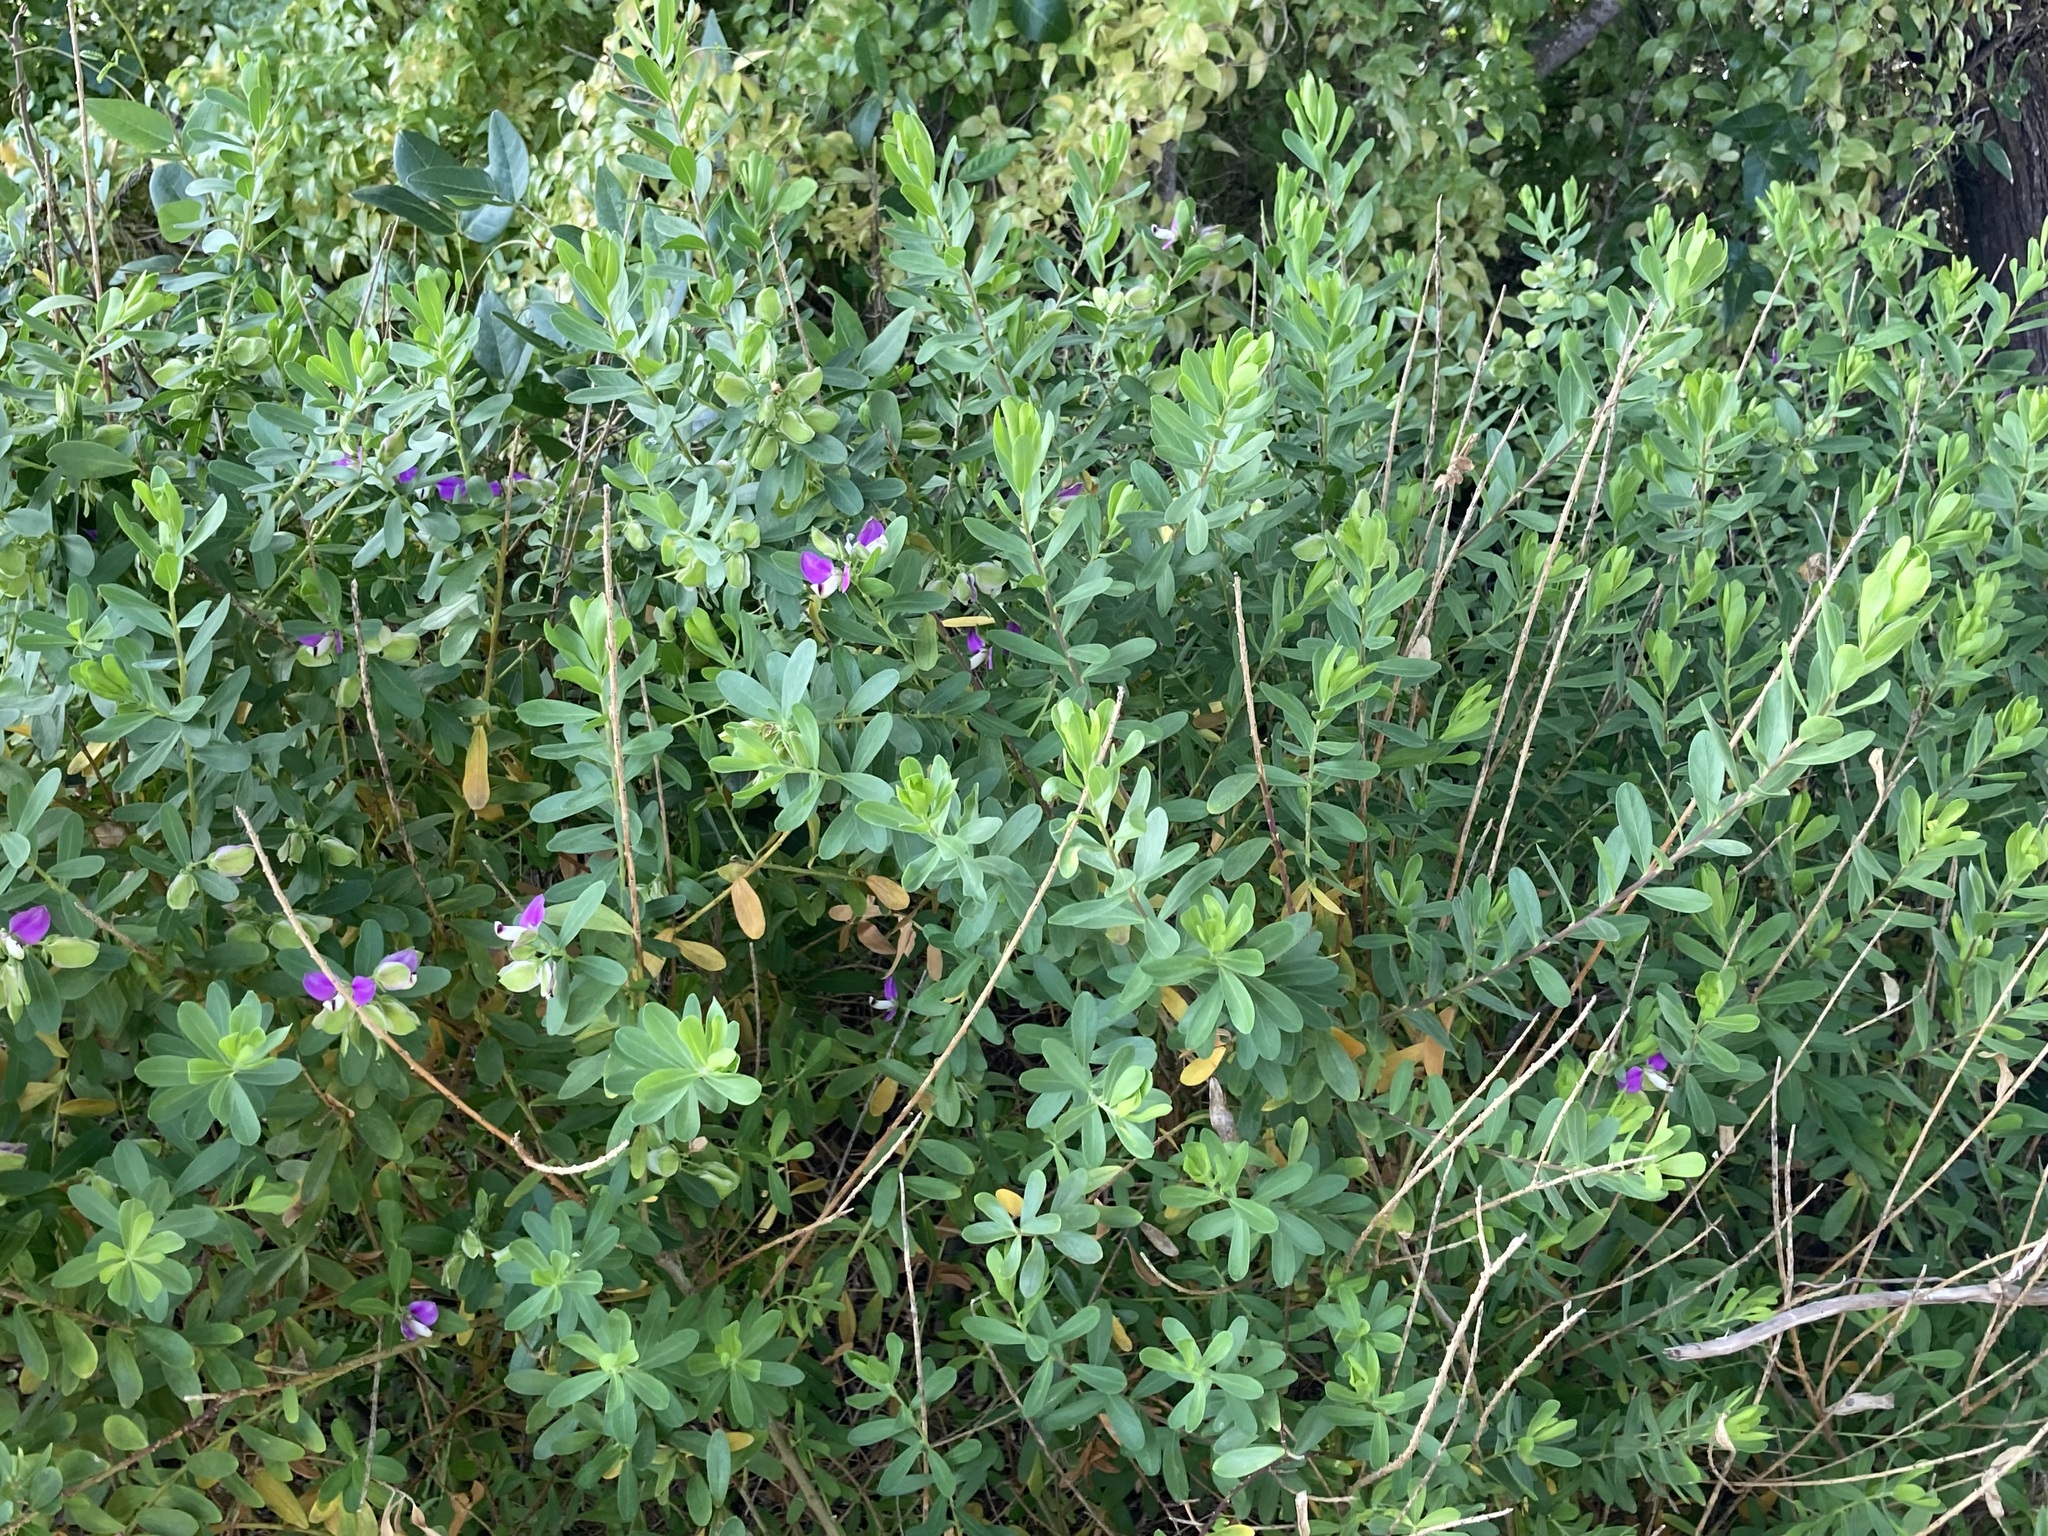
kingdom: Plantae
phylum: Tracheophyta
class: Magnoliopsida
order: Fabales
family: Polygalaceae
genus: Polygala
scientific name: Polygala myrtifolia
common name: Myrtle-leaf milkwort
